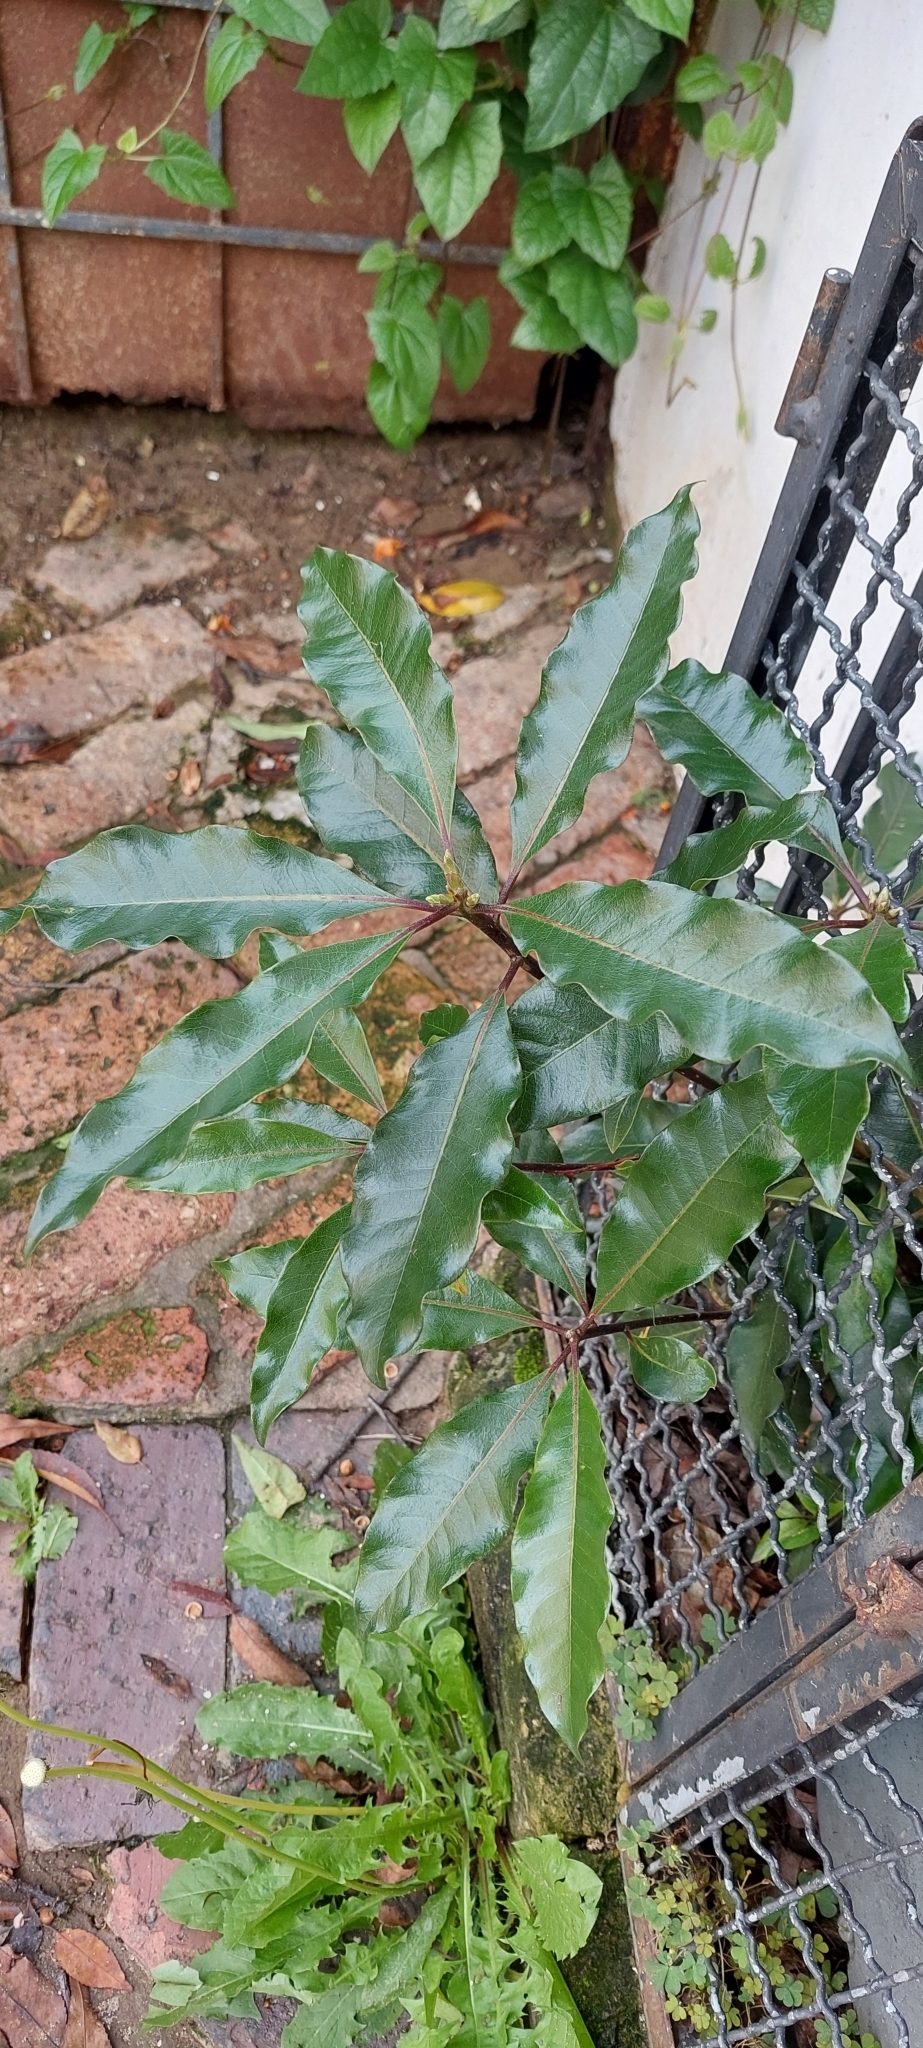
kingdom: Plantae
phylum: Tracheophyta
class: Magnoliopsida
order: Apiales
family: Pittosporaceae
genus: Pittosporum
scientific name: Pittosporum undulatum
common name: Australian cheesewood
